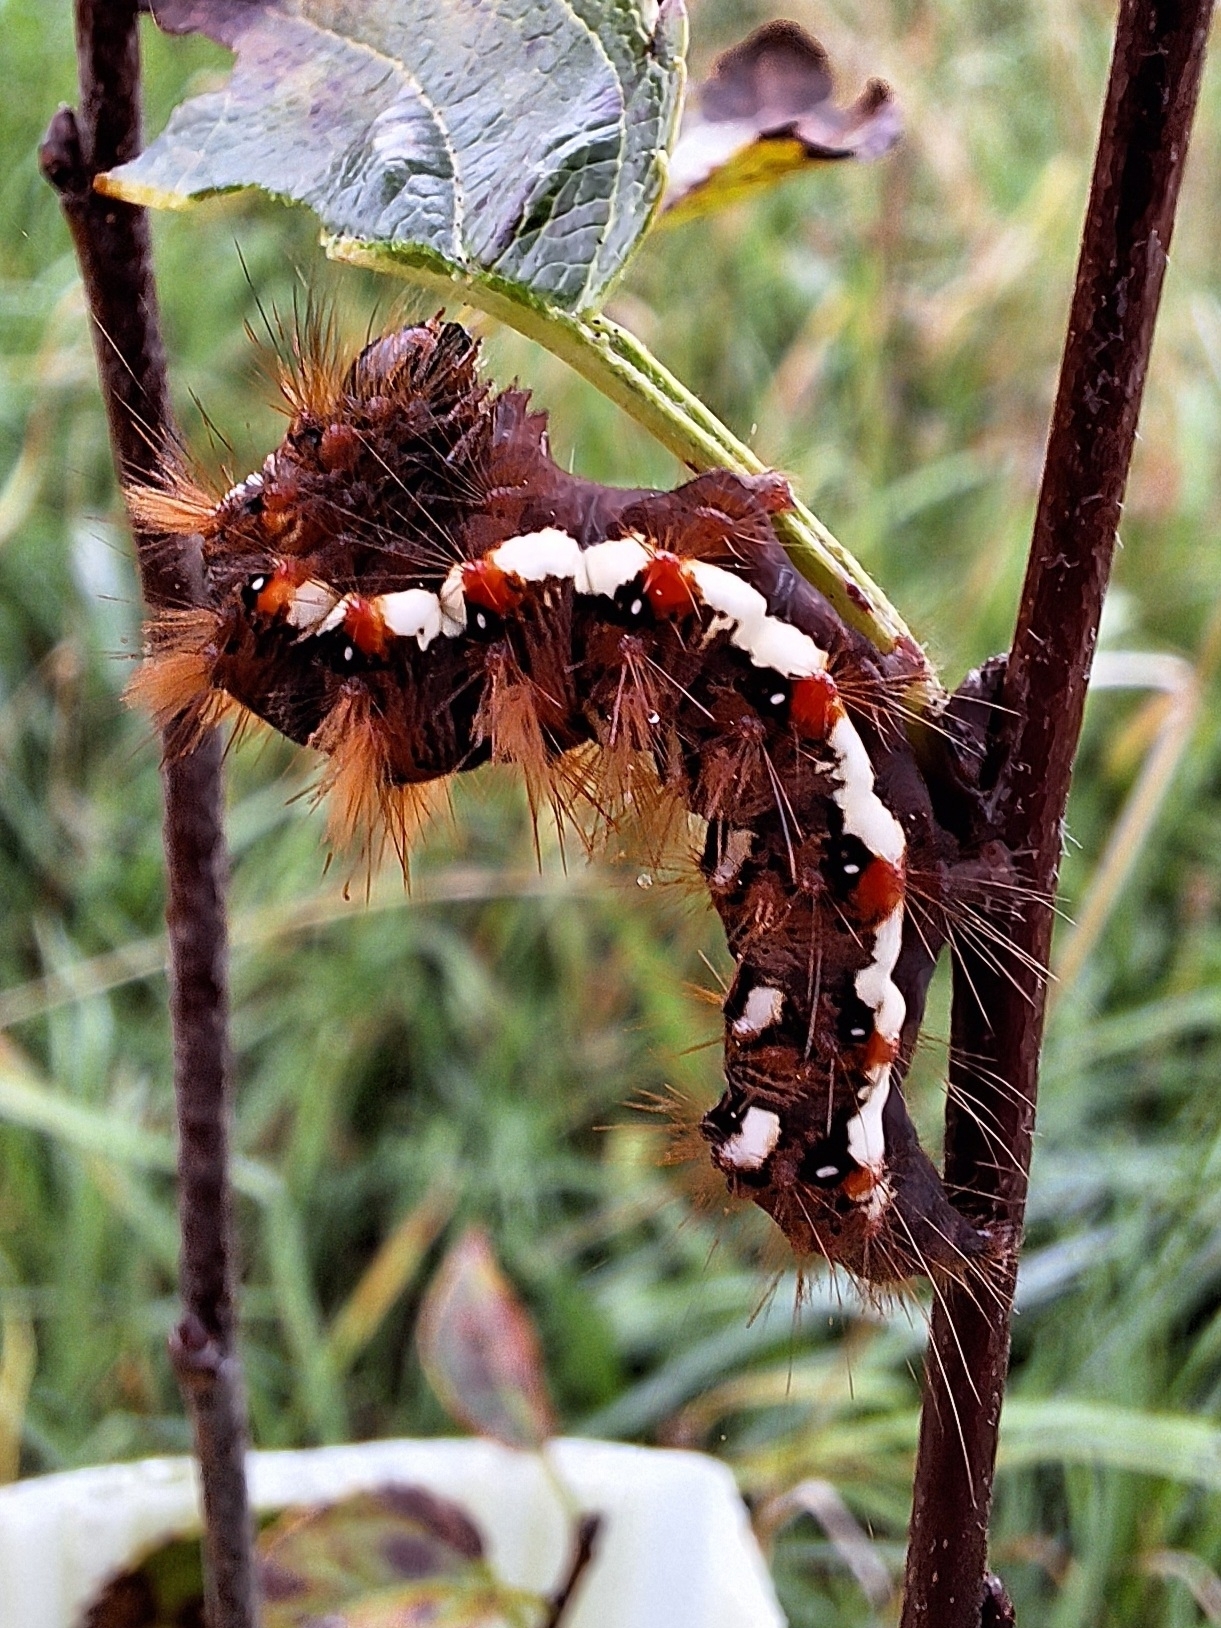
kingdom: Animalia
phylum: Arthropoda
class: Insecta
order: Lepidoptera
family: Noctuidae
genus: Acronicta
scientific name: Acronicta rumicis
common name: Knot grass
